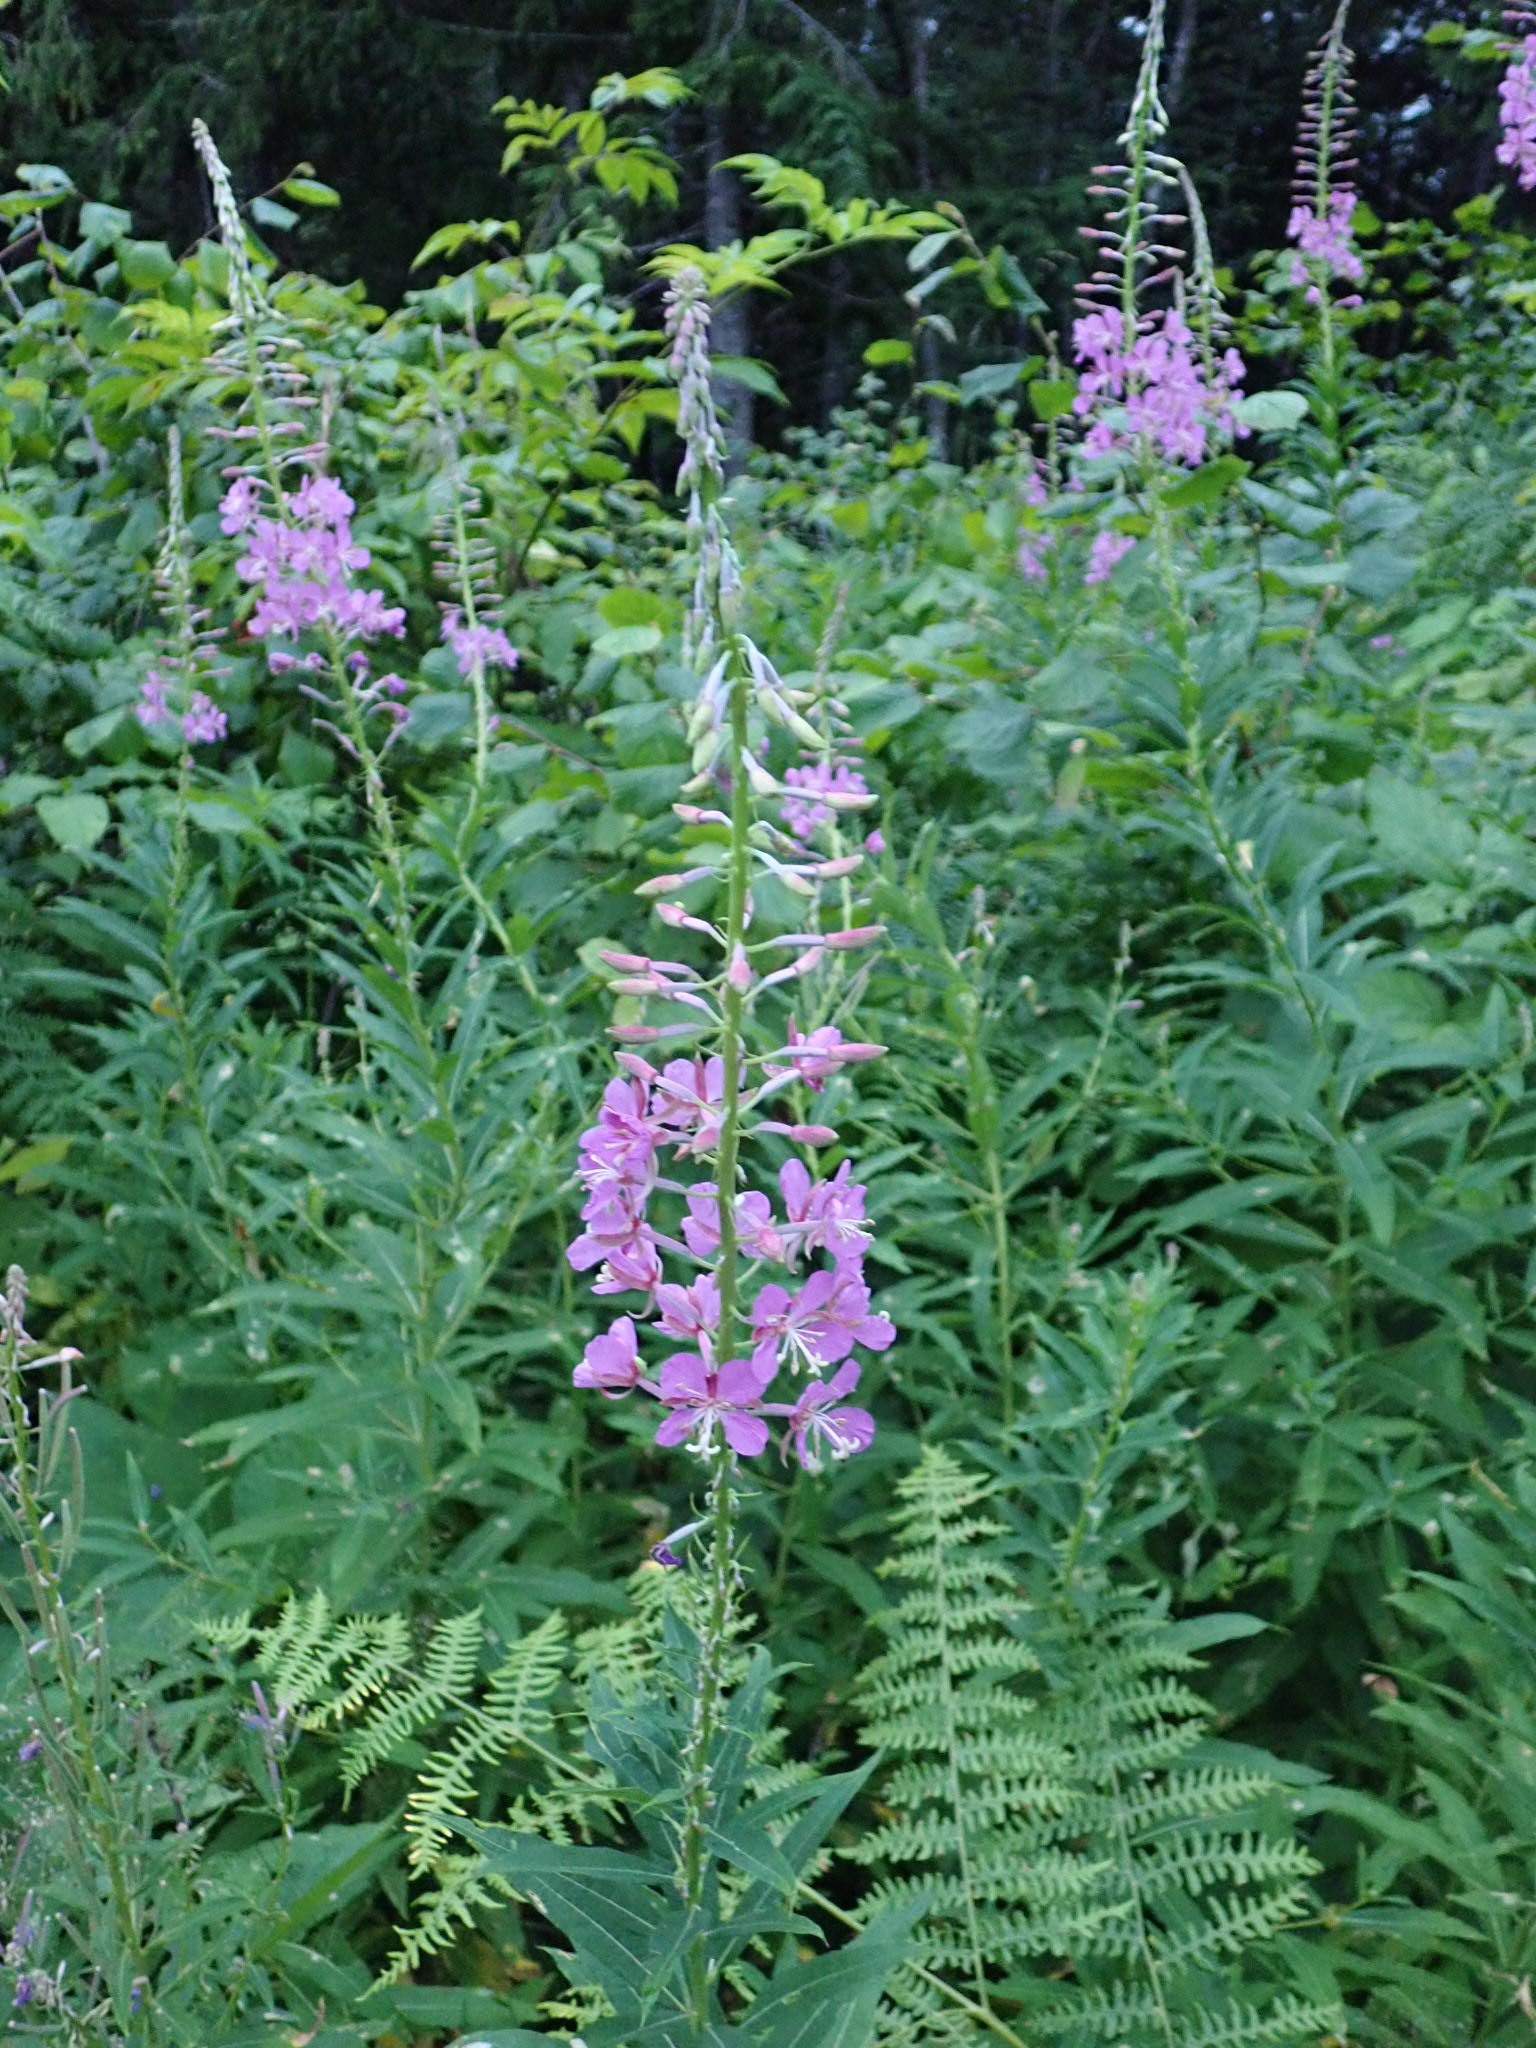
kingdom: Plantae
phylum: Tracheophyta
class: Magnoliopsida
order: Myrtales
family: Onagraceae
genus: Chamaenerion
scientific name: Chamaenerion angustifolium
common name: Fireweed
